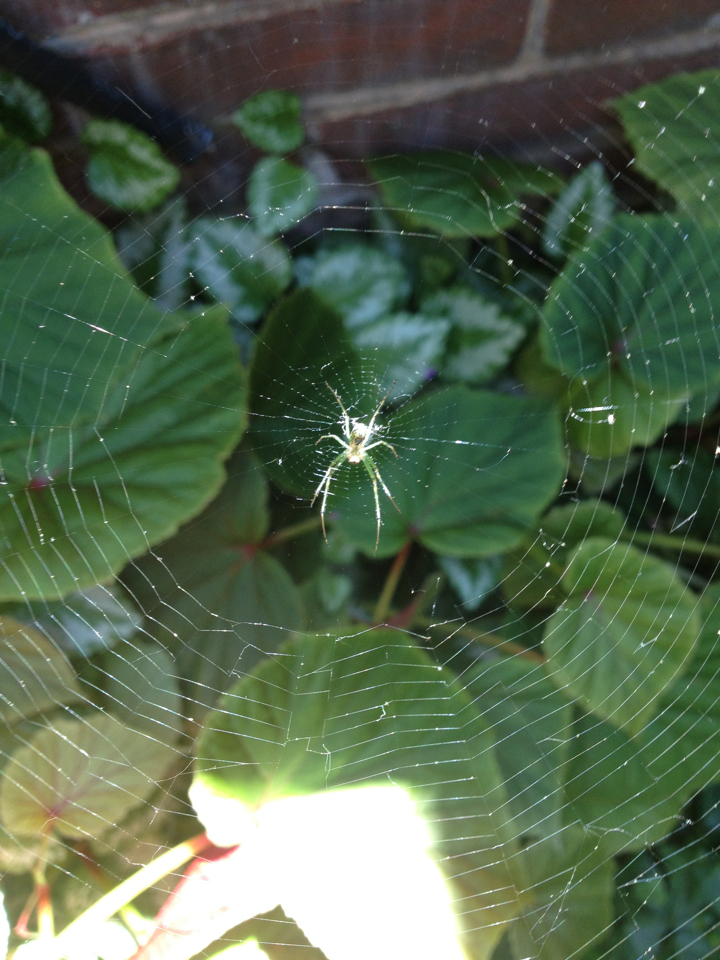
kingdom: Animalia
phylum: Arthropoda
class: Arachnida
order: Araneae
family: Tetragnathidae
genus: Leucauge
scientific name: Leucauge venusta
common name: Longjawed orb weavers
